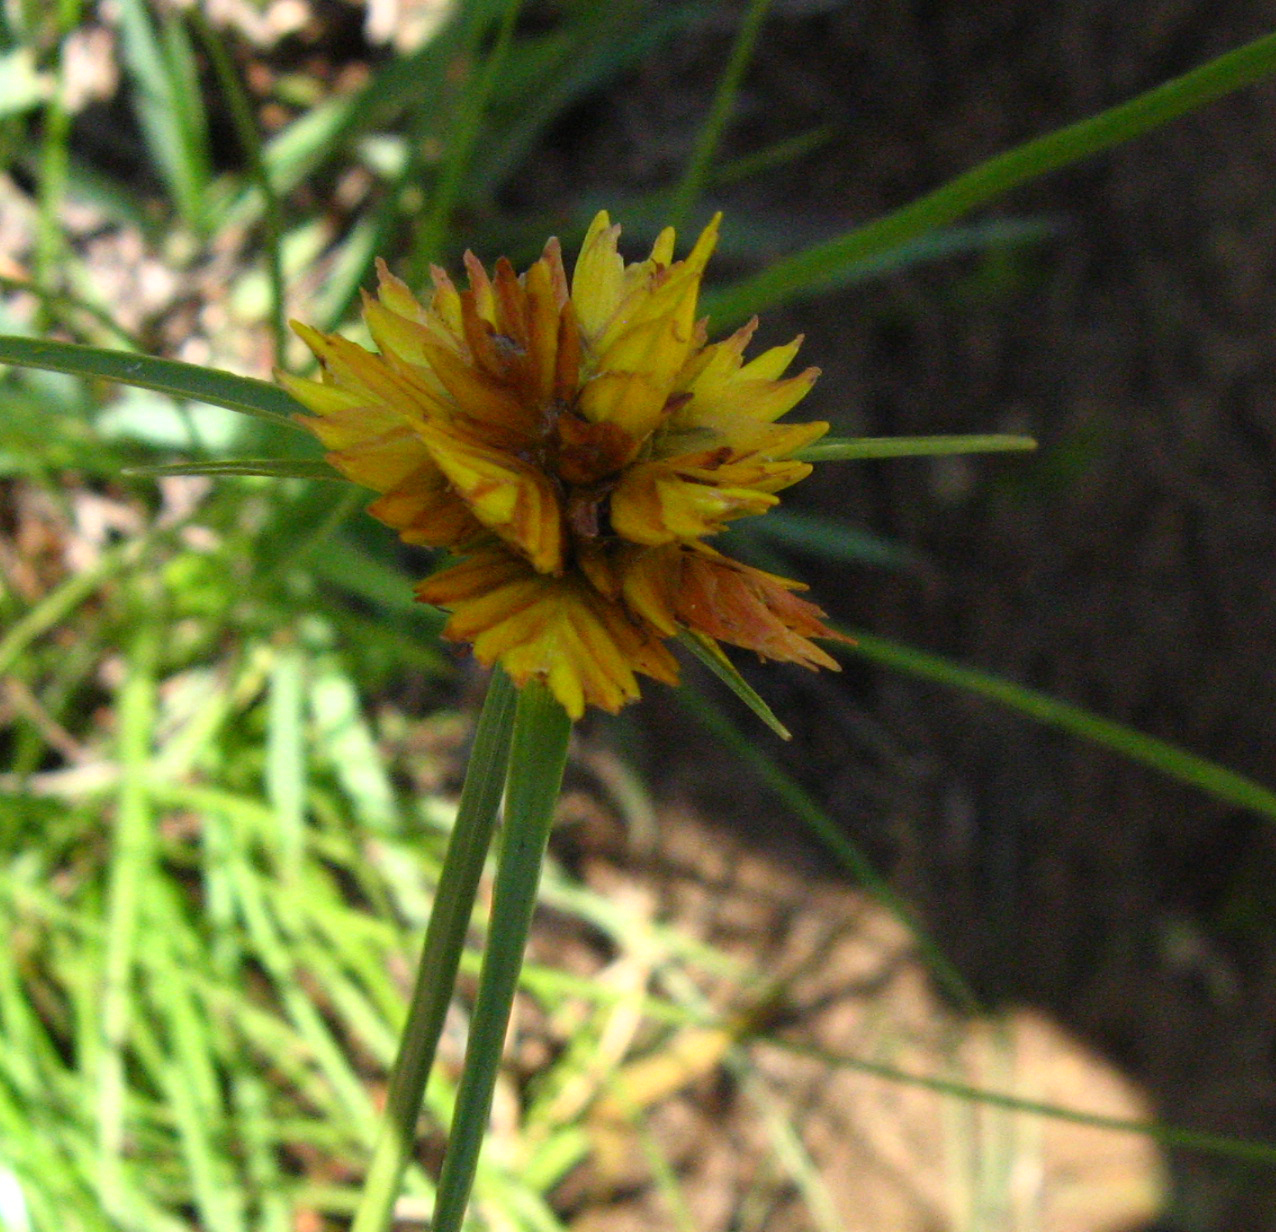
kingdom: Plantae
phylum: Tracheophyta
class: Liliopsida
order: Poales
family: Cyperaceae
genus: Cyperus
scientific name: Cyperus sphaerocephalus
